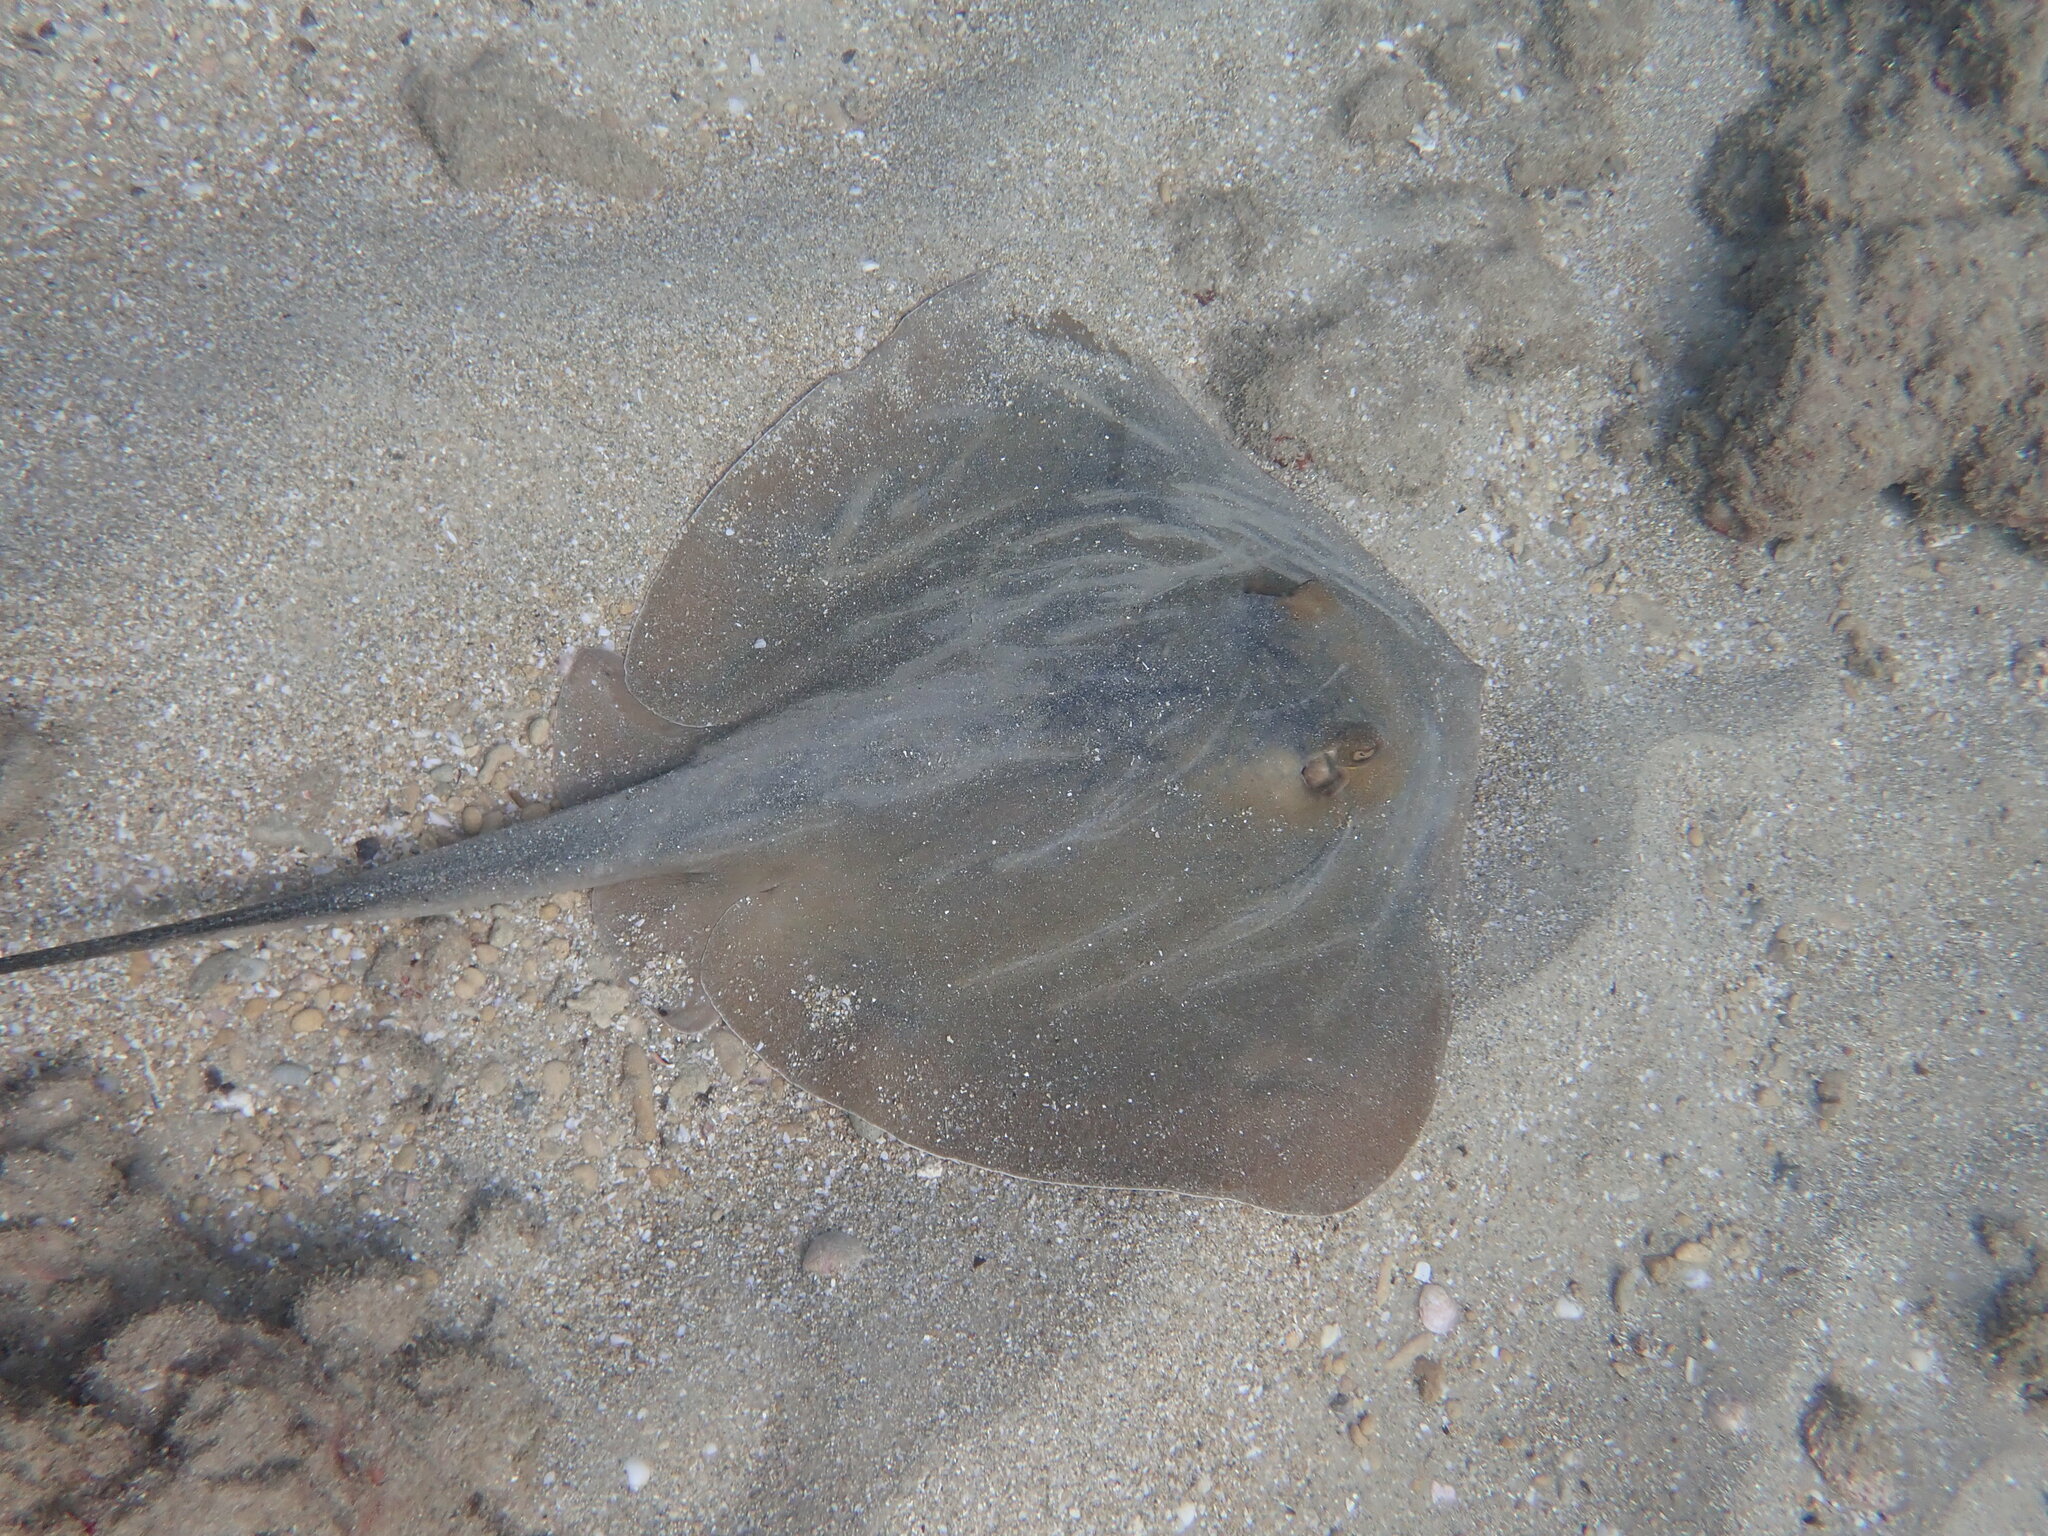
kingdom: Animalia
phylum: Chordata
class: Elasmobranchii
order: Myliobatiformes
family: Dasyatidae
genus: Dasyatis
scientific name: Dasyatis pastinaca
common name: Common stingray
